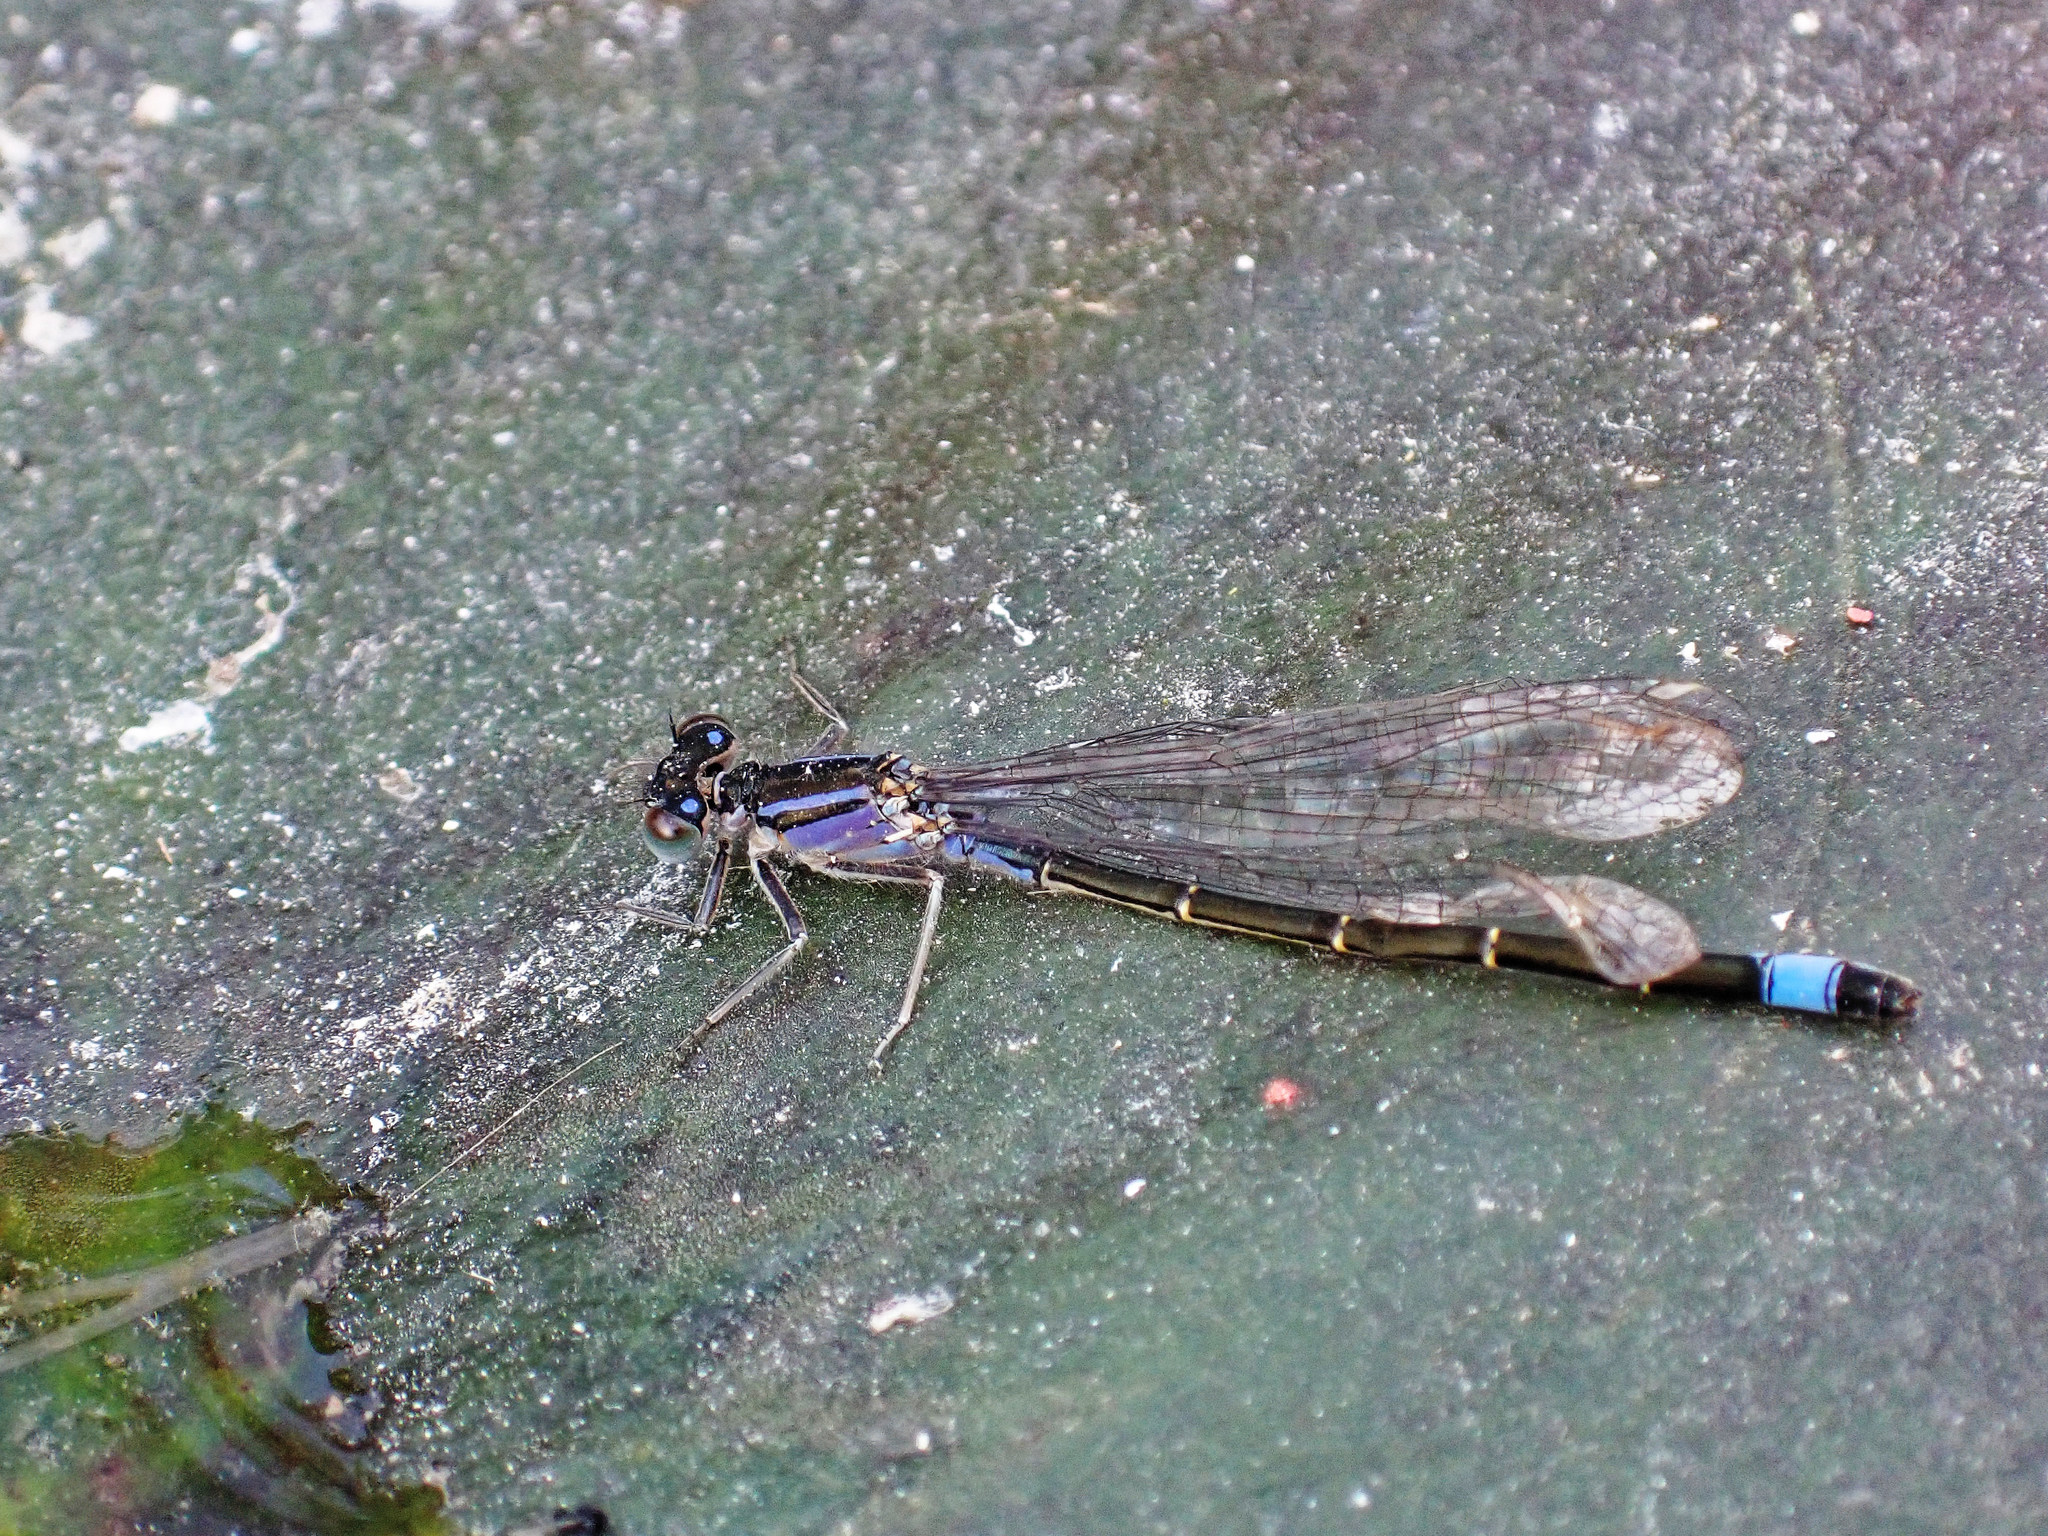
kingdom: Animalia
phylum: Arthropoda
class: Insecta
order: Odonata
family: Coenagrionidae
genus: Ischnura
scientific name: Ischnura elegans
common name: Blue-tailed damselfly
